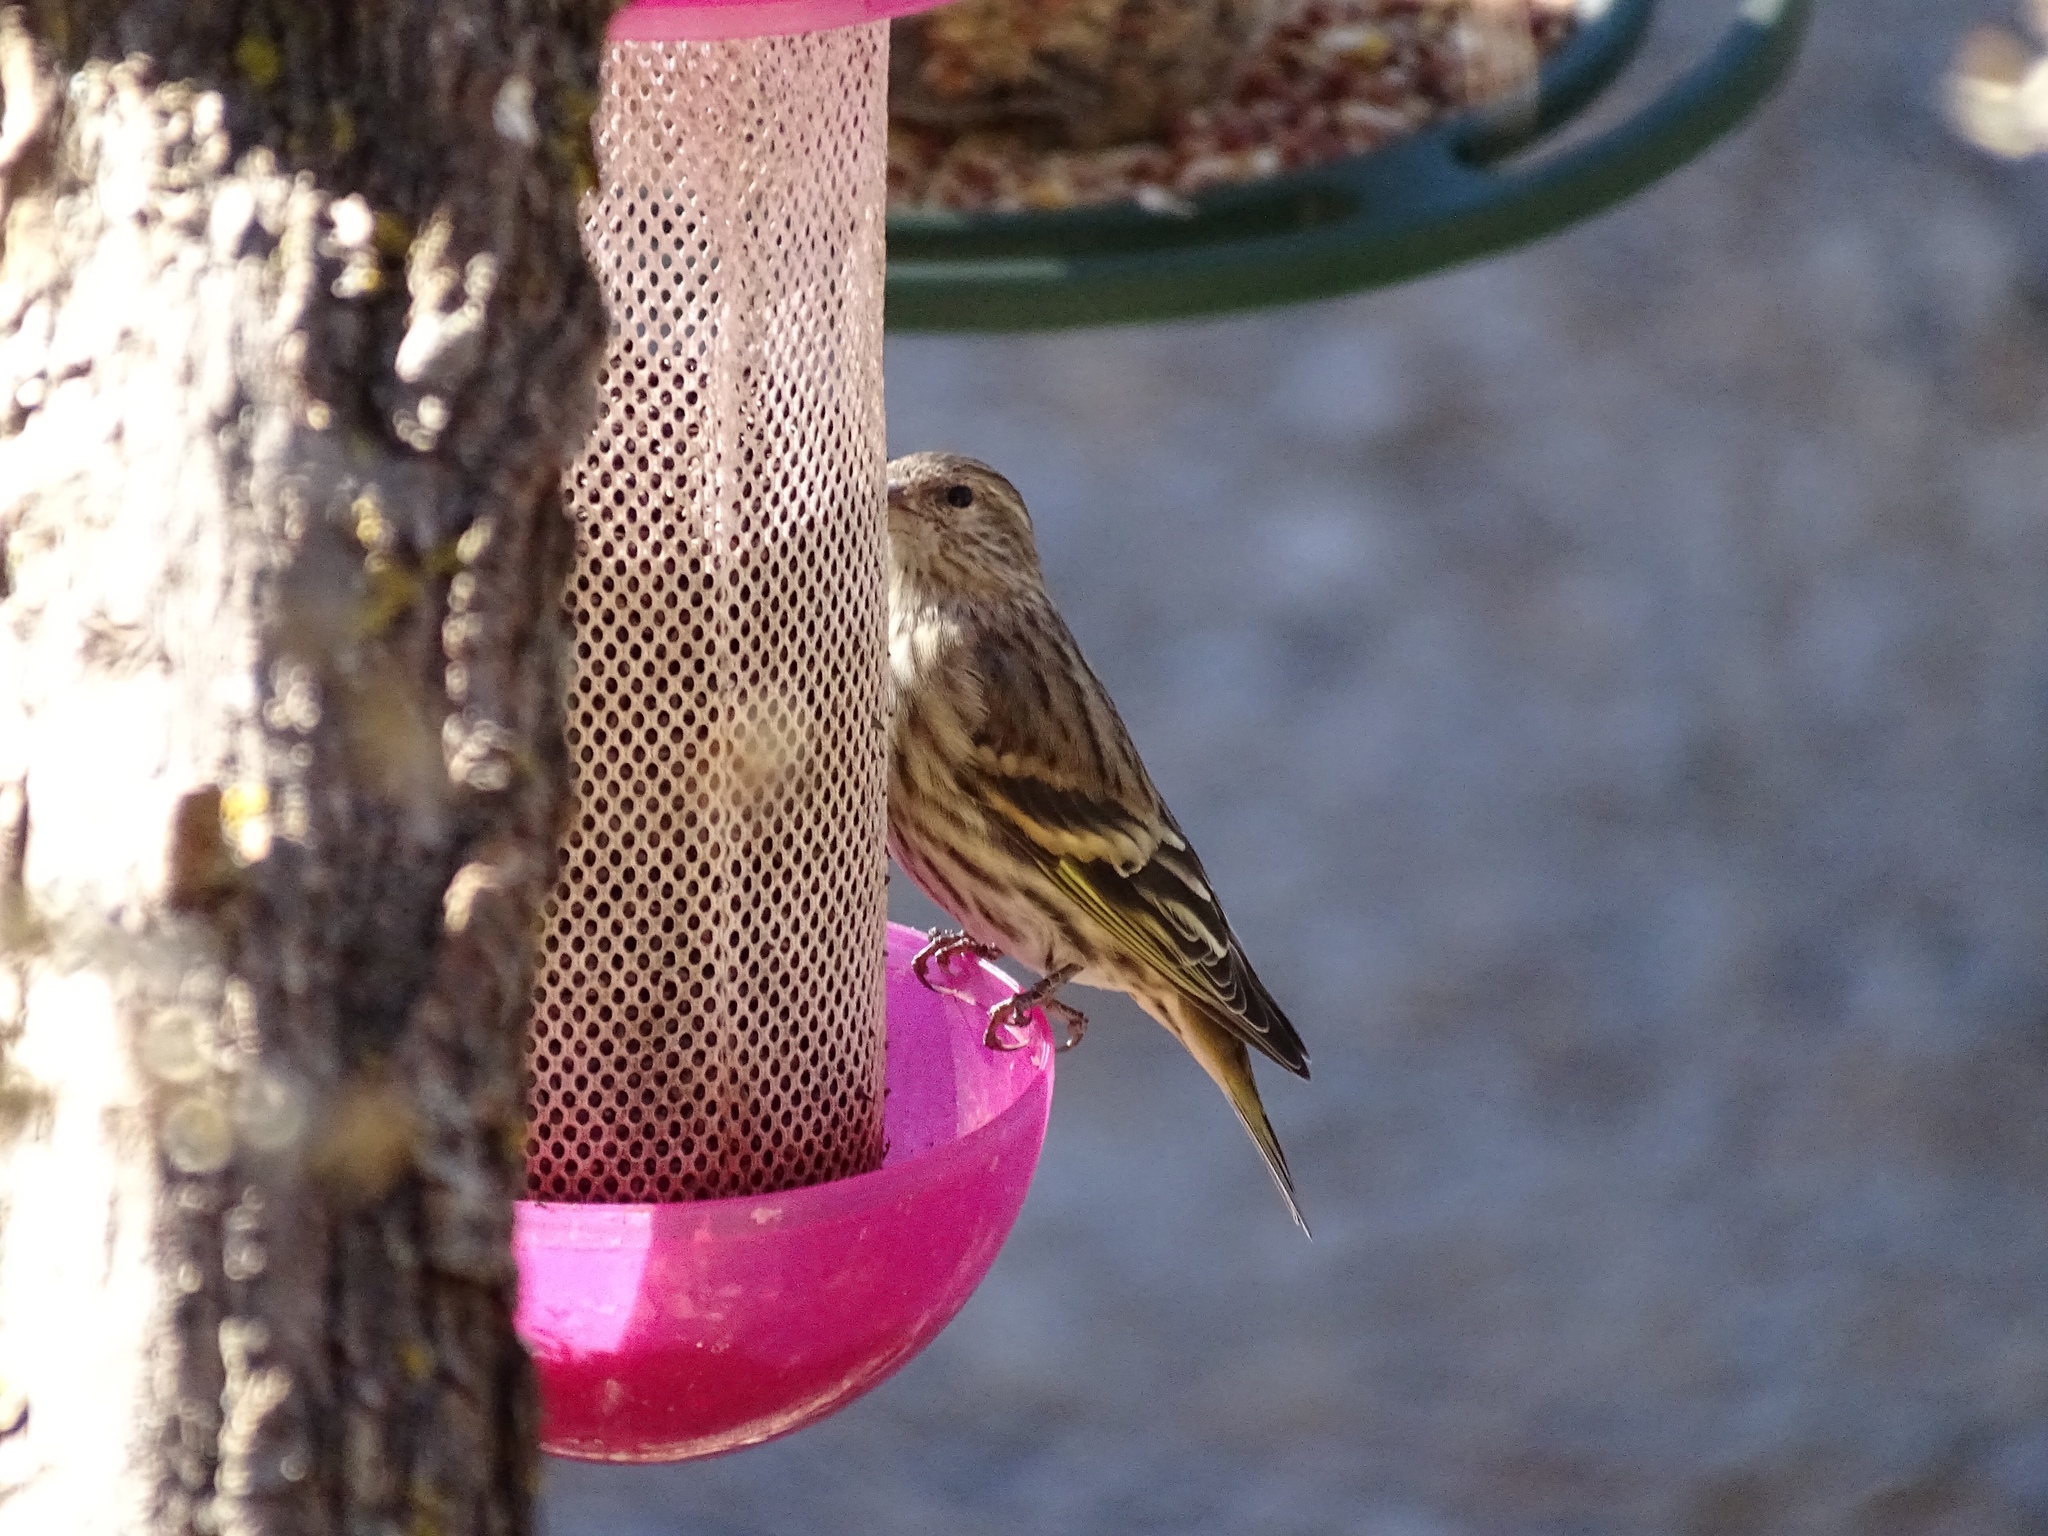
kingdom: Animalia
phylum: Chordata
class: Aves
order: Passeriformes
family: Fringillidae
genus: Spinus
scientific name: Spinus pinus
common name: Pine siskin
